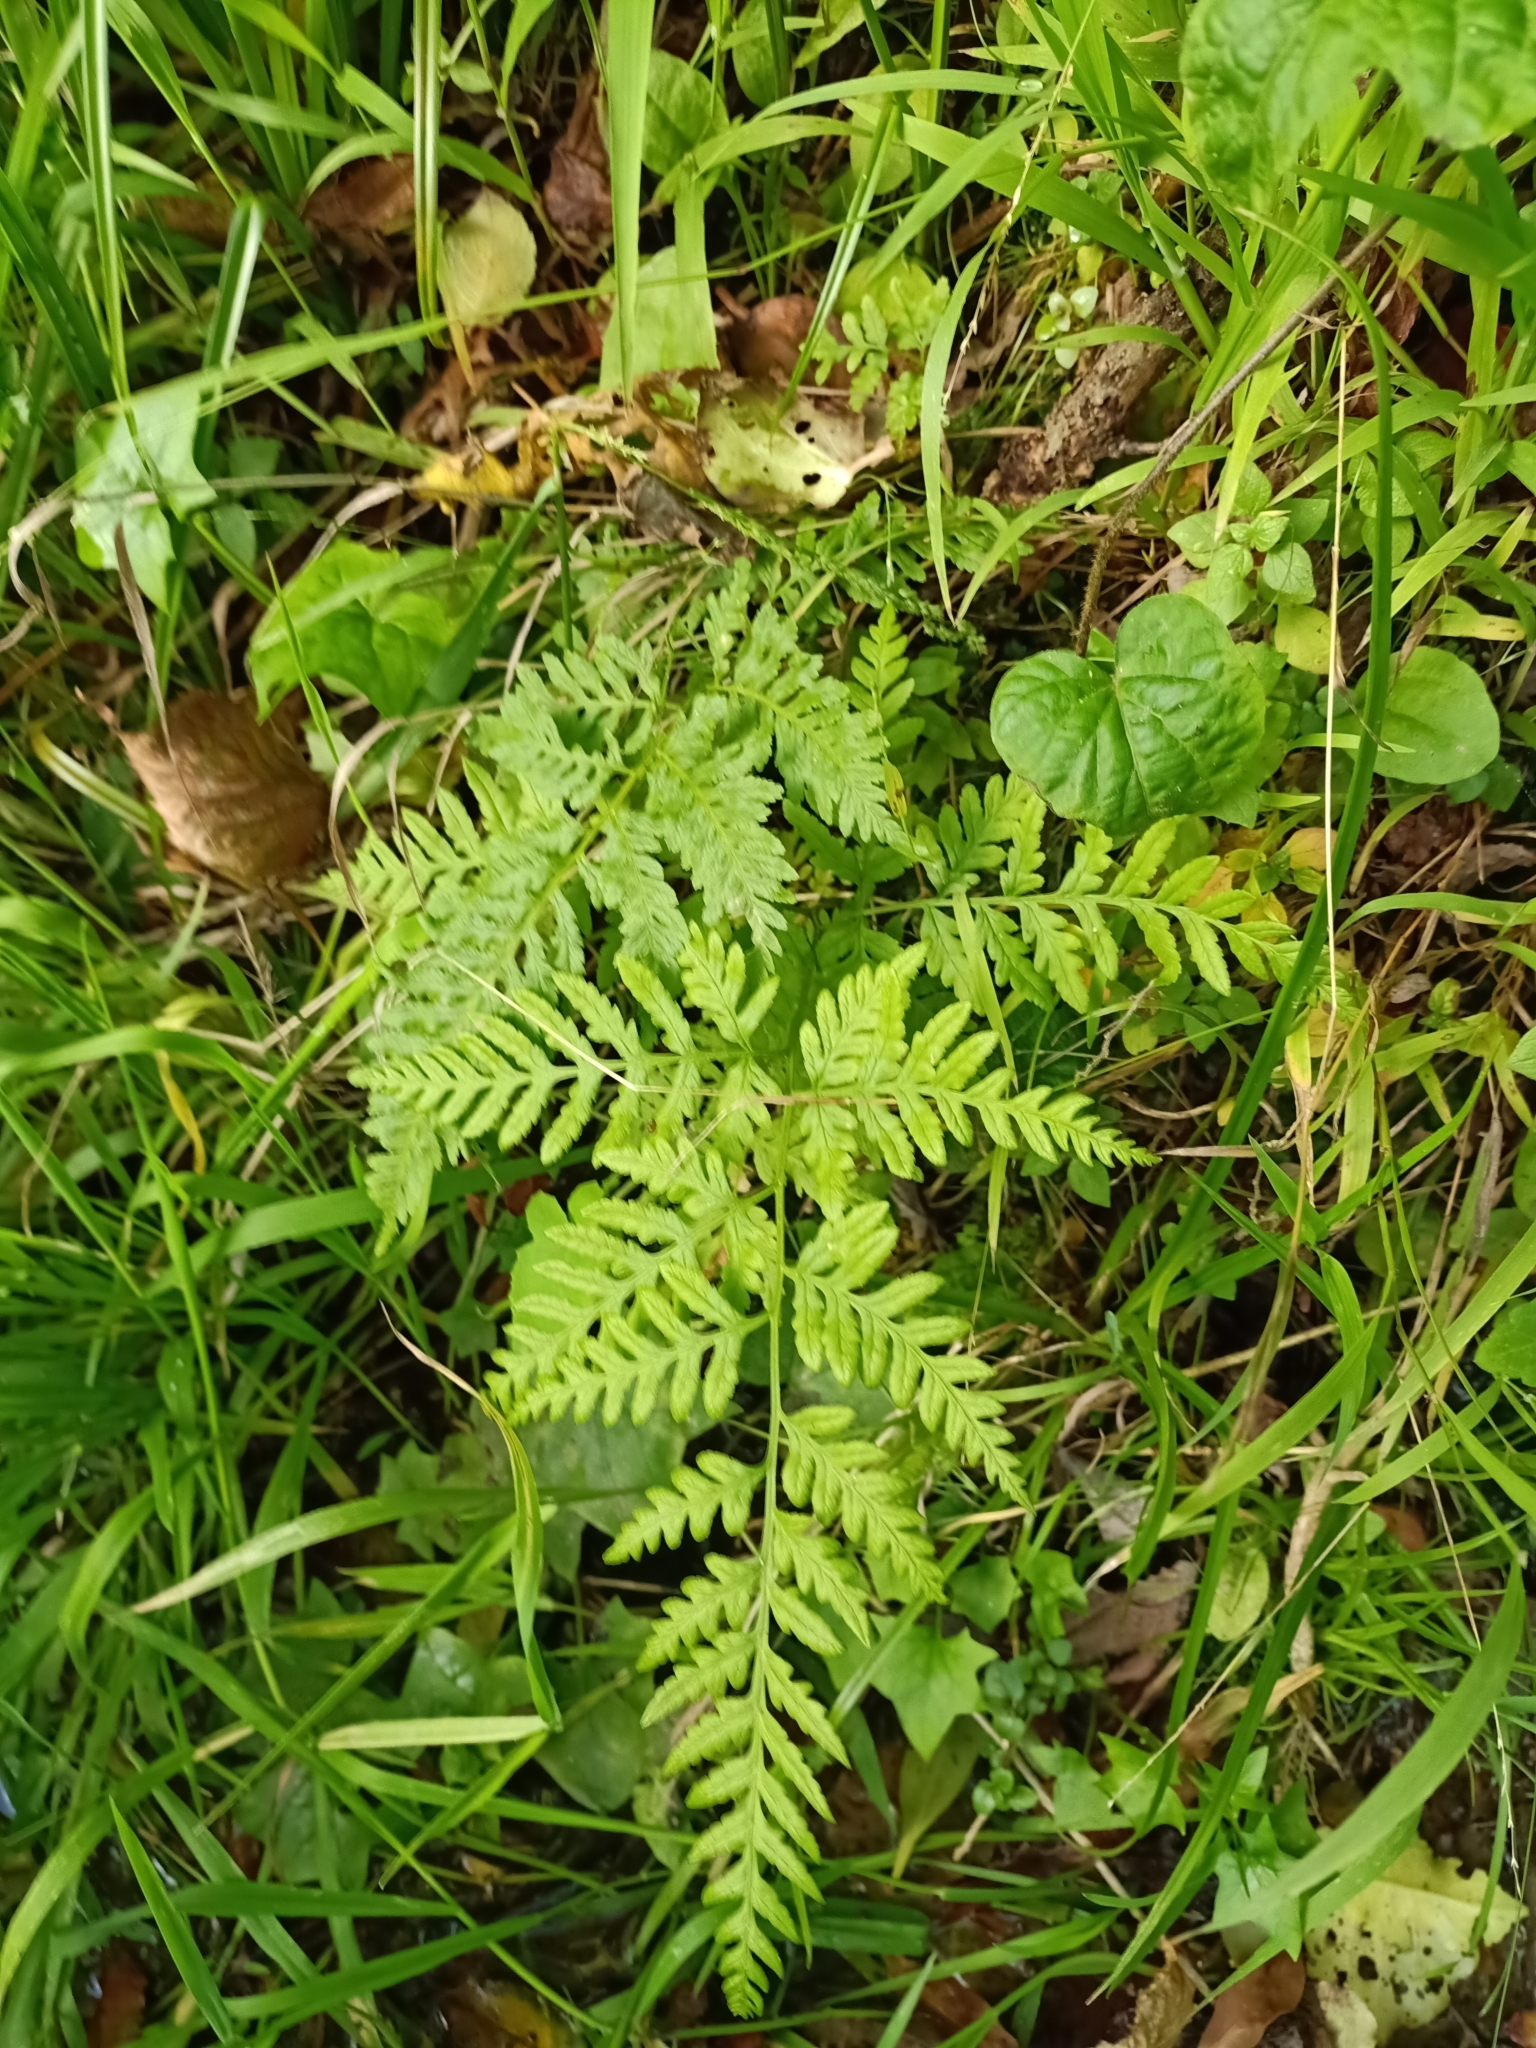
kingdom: Plantae
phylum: Tracheophyta
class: Polypodiopsida
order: Polypodiales
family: Pteridaceae
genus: Pteris
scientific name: Pteris tremula
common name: Australian brake
